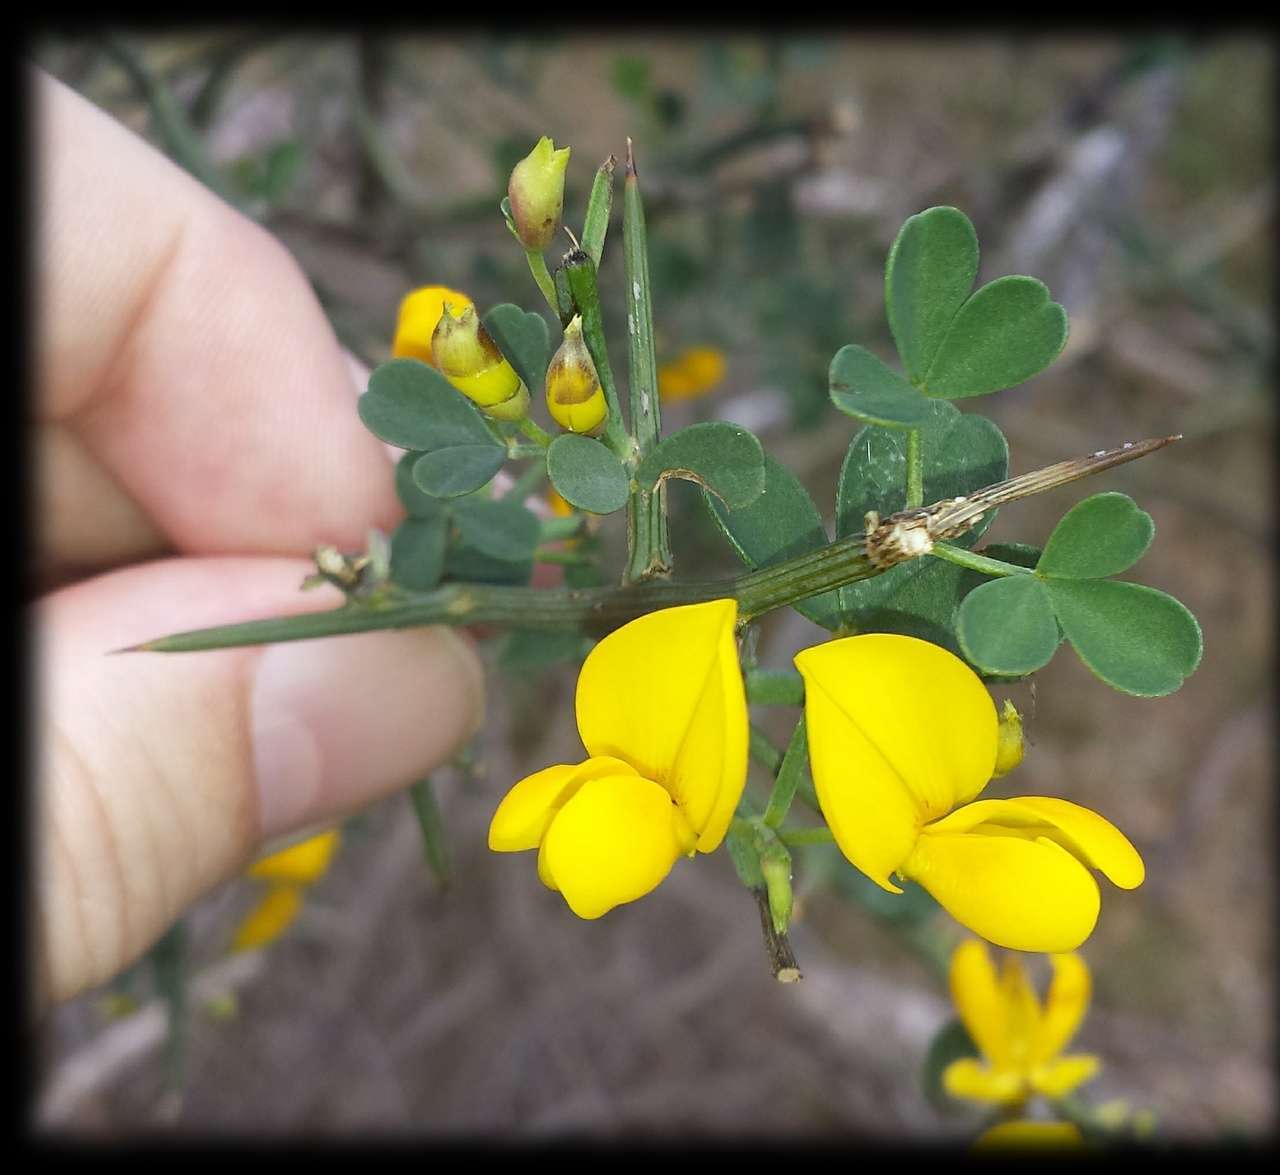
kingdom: Plantae
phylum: Tracheophyta
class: Magnoliopsida
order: Fabales
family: Fabaceae
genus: Calicotome
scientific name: Calicotome spinosa
